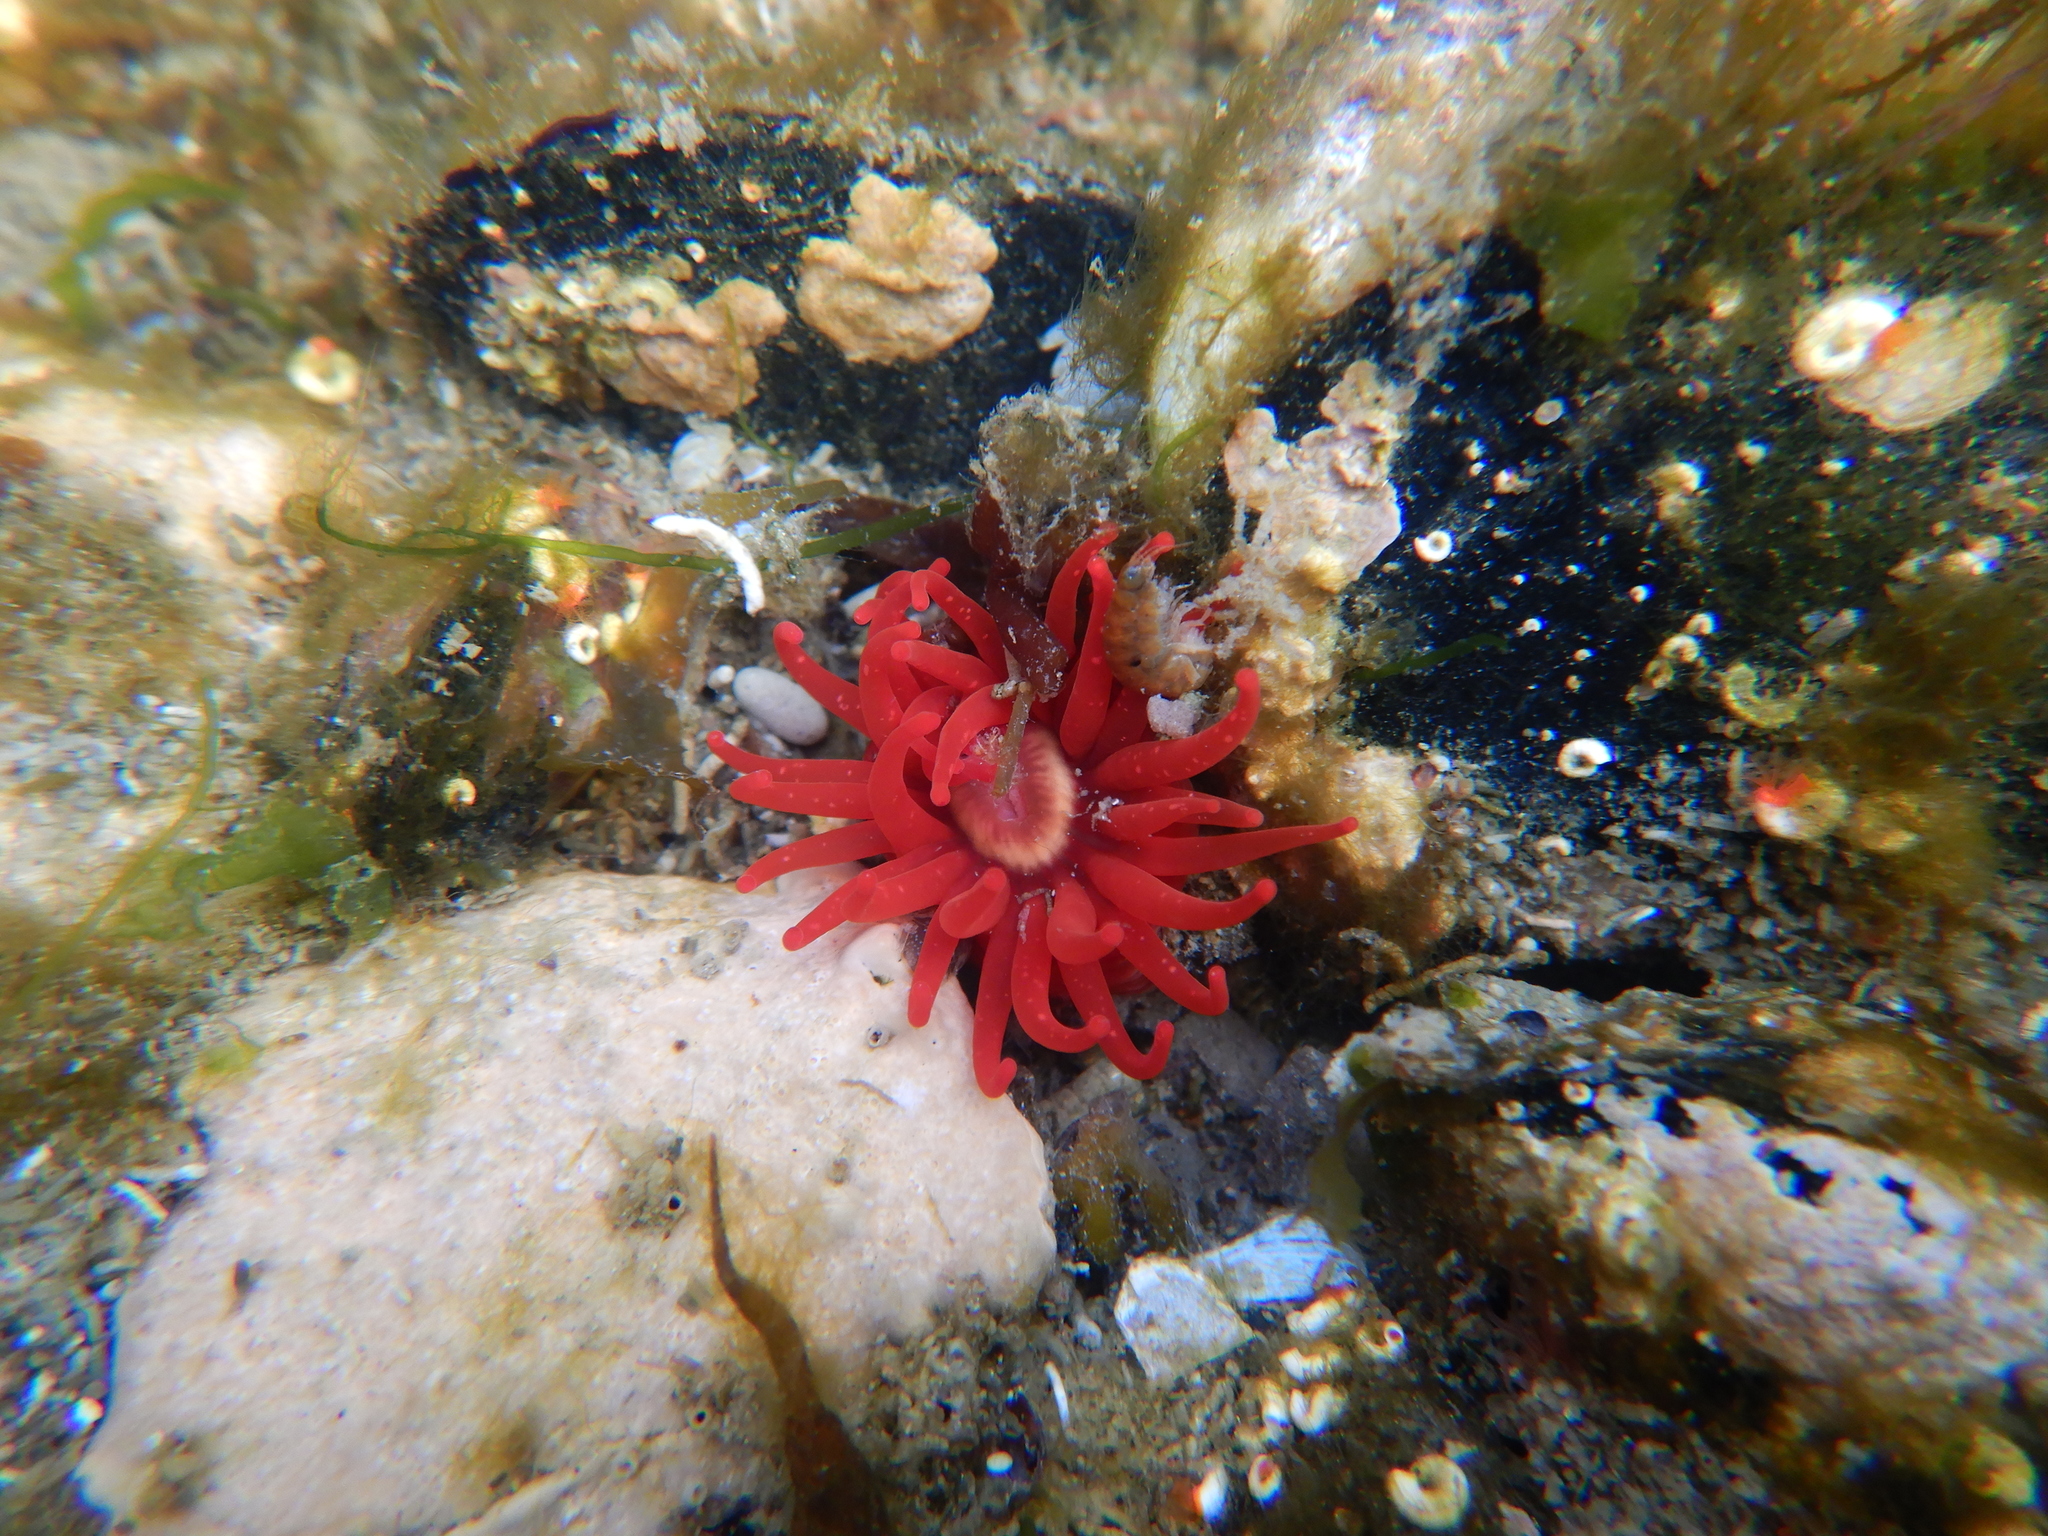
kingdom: Animalia
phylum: Cnidaria
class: Anthozoa
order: Actiniaria
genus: Paractis
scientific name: Paractis impatiens
